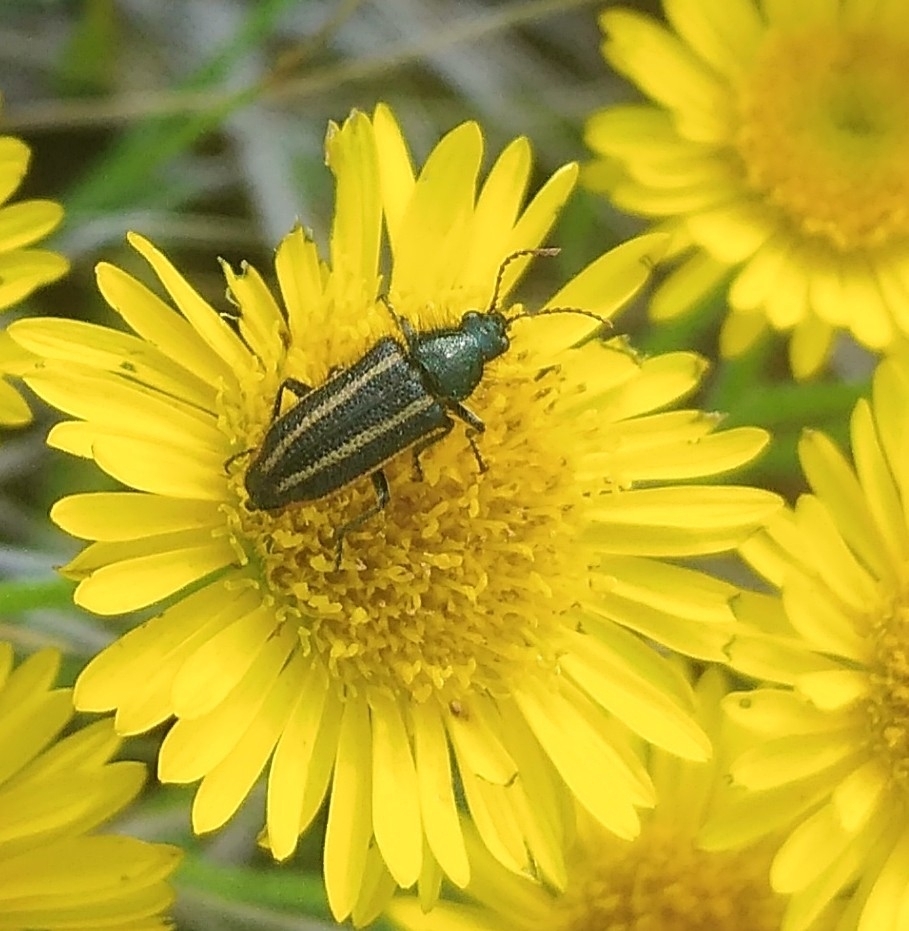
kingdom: Animalia
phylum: Arthropoda
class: Insecta
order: Coleoptera
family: Melyridae
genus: Astylus
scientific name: Astylus
